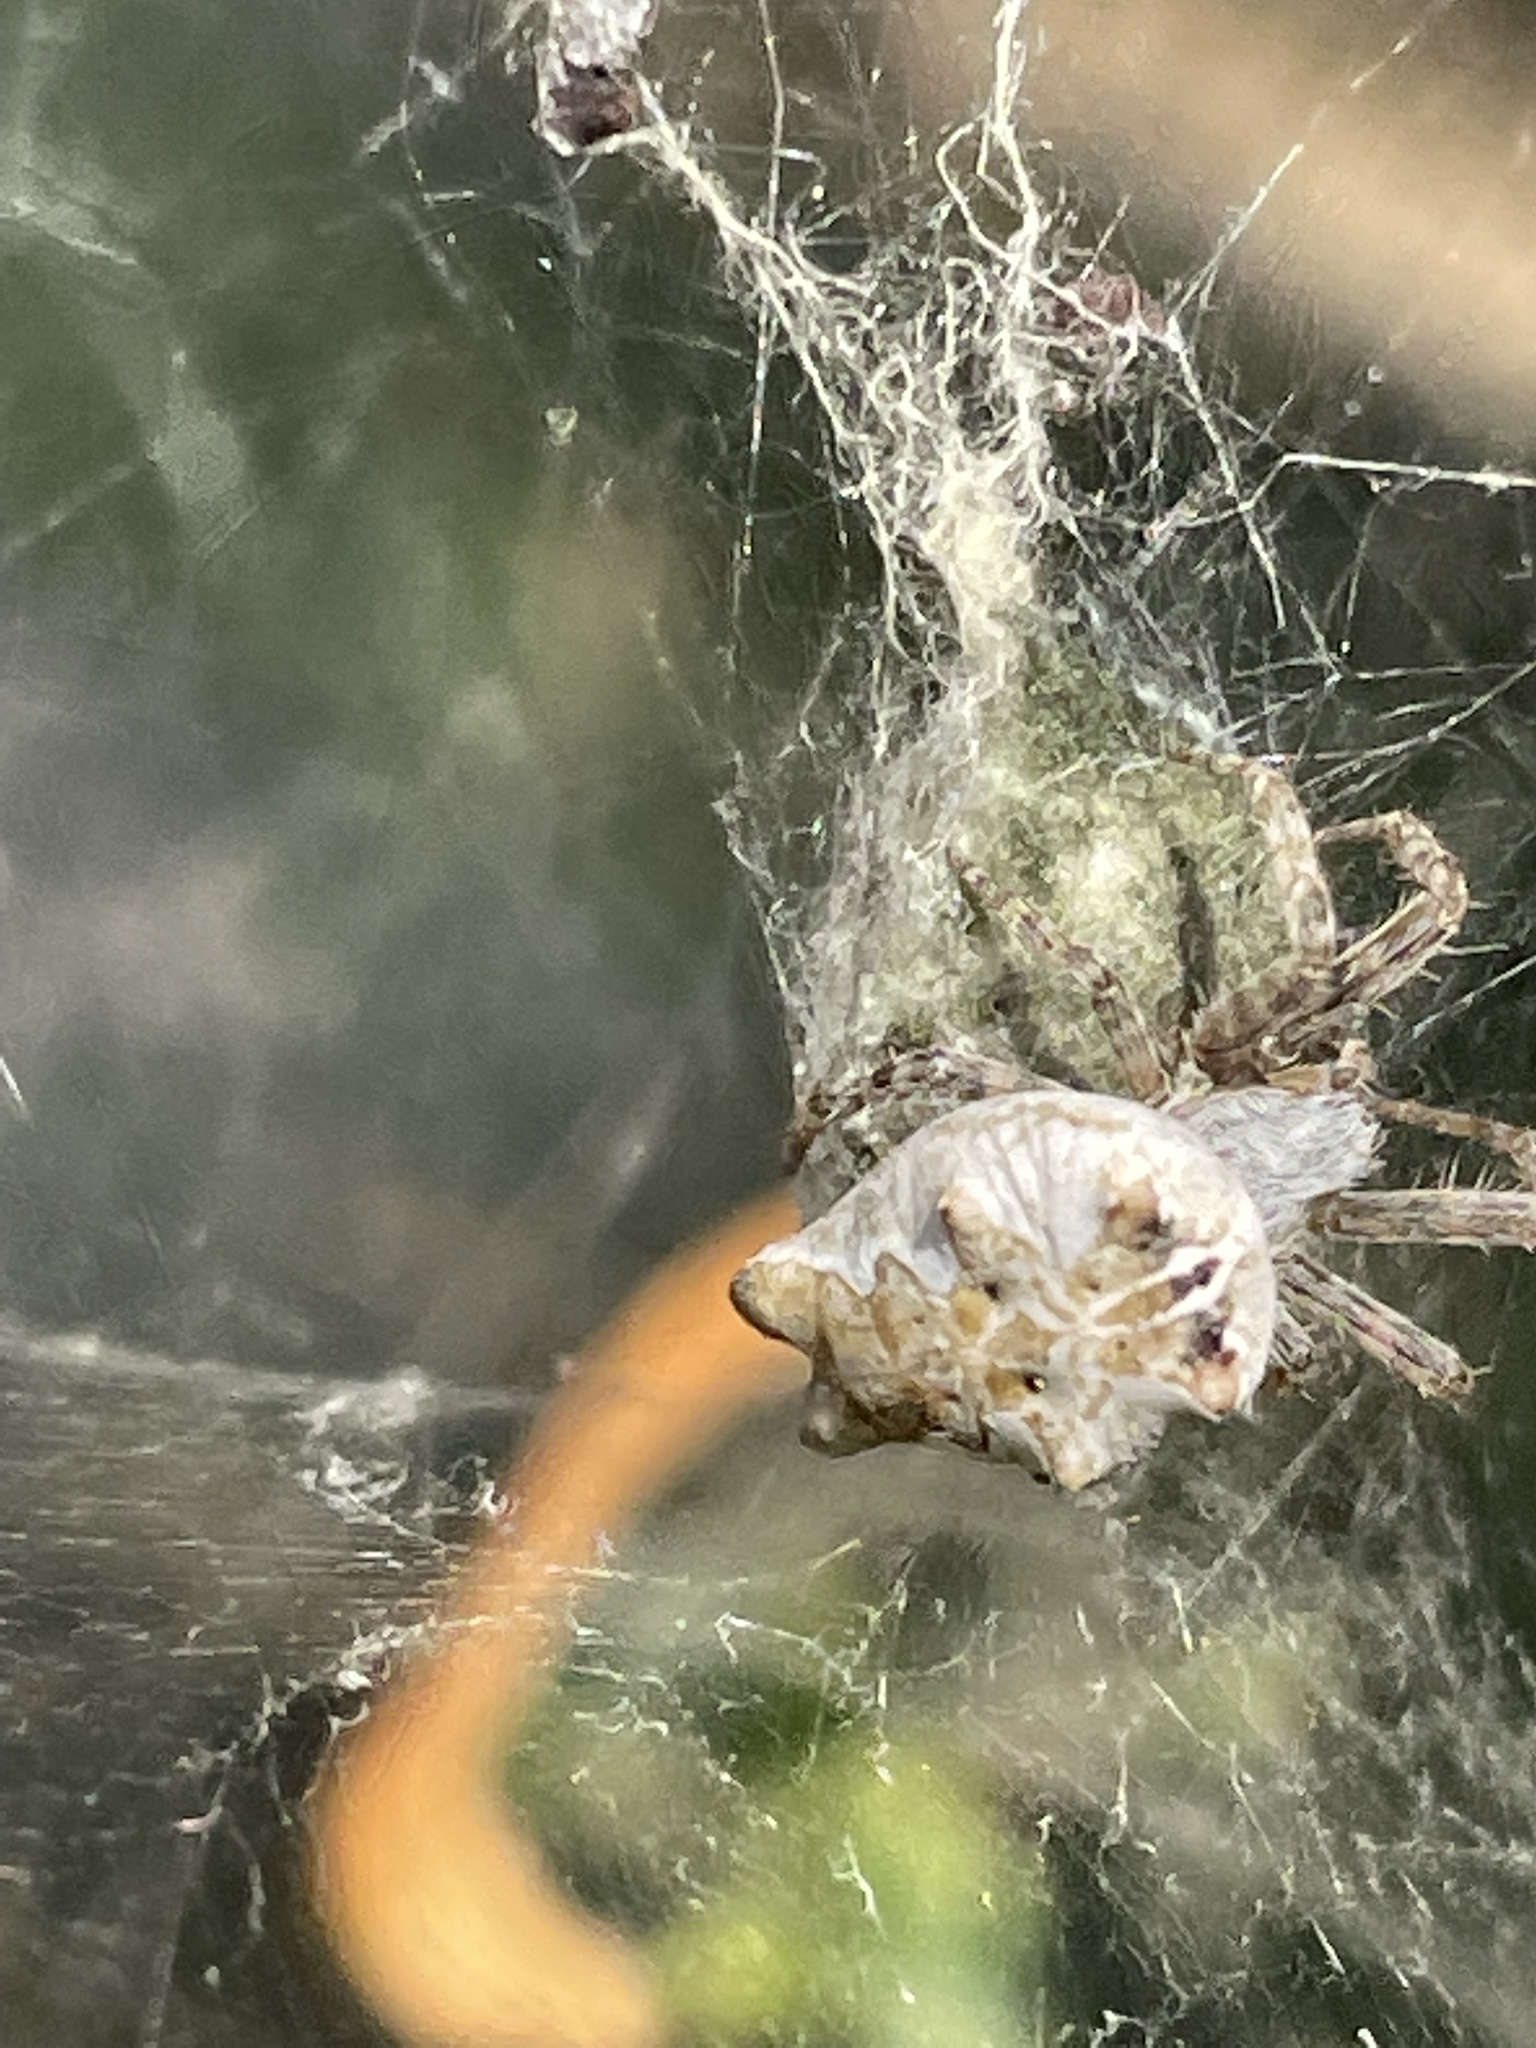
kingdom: Animalia
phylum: Arthropoda
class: Arachnida
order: Araneae
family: Araneidae
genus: Cyrtophora
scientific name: Cyrtophora citricola
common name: Orb weavers
